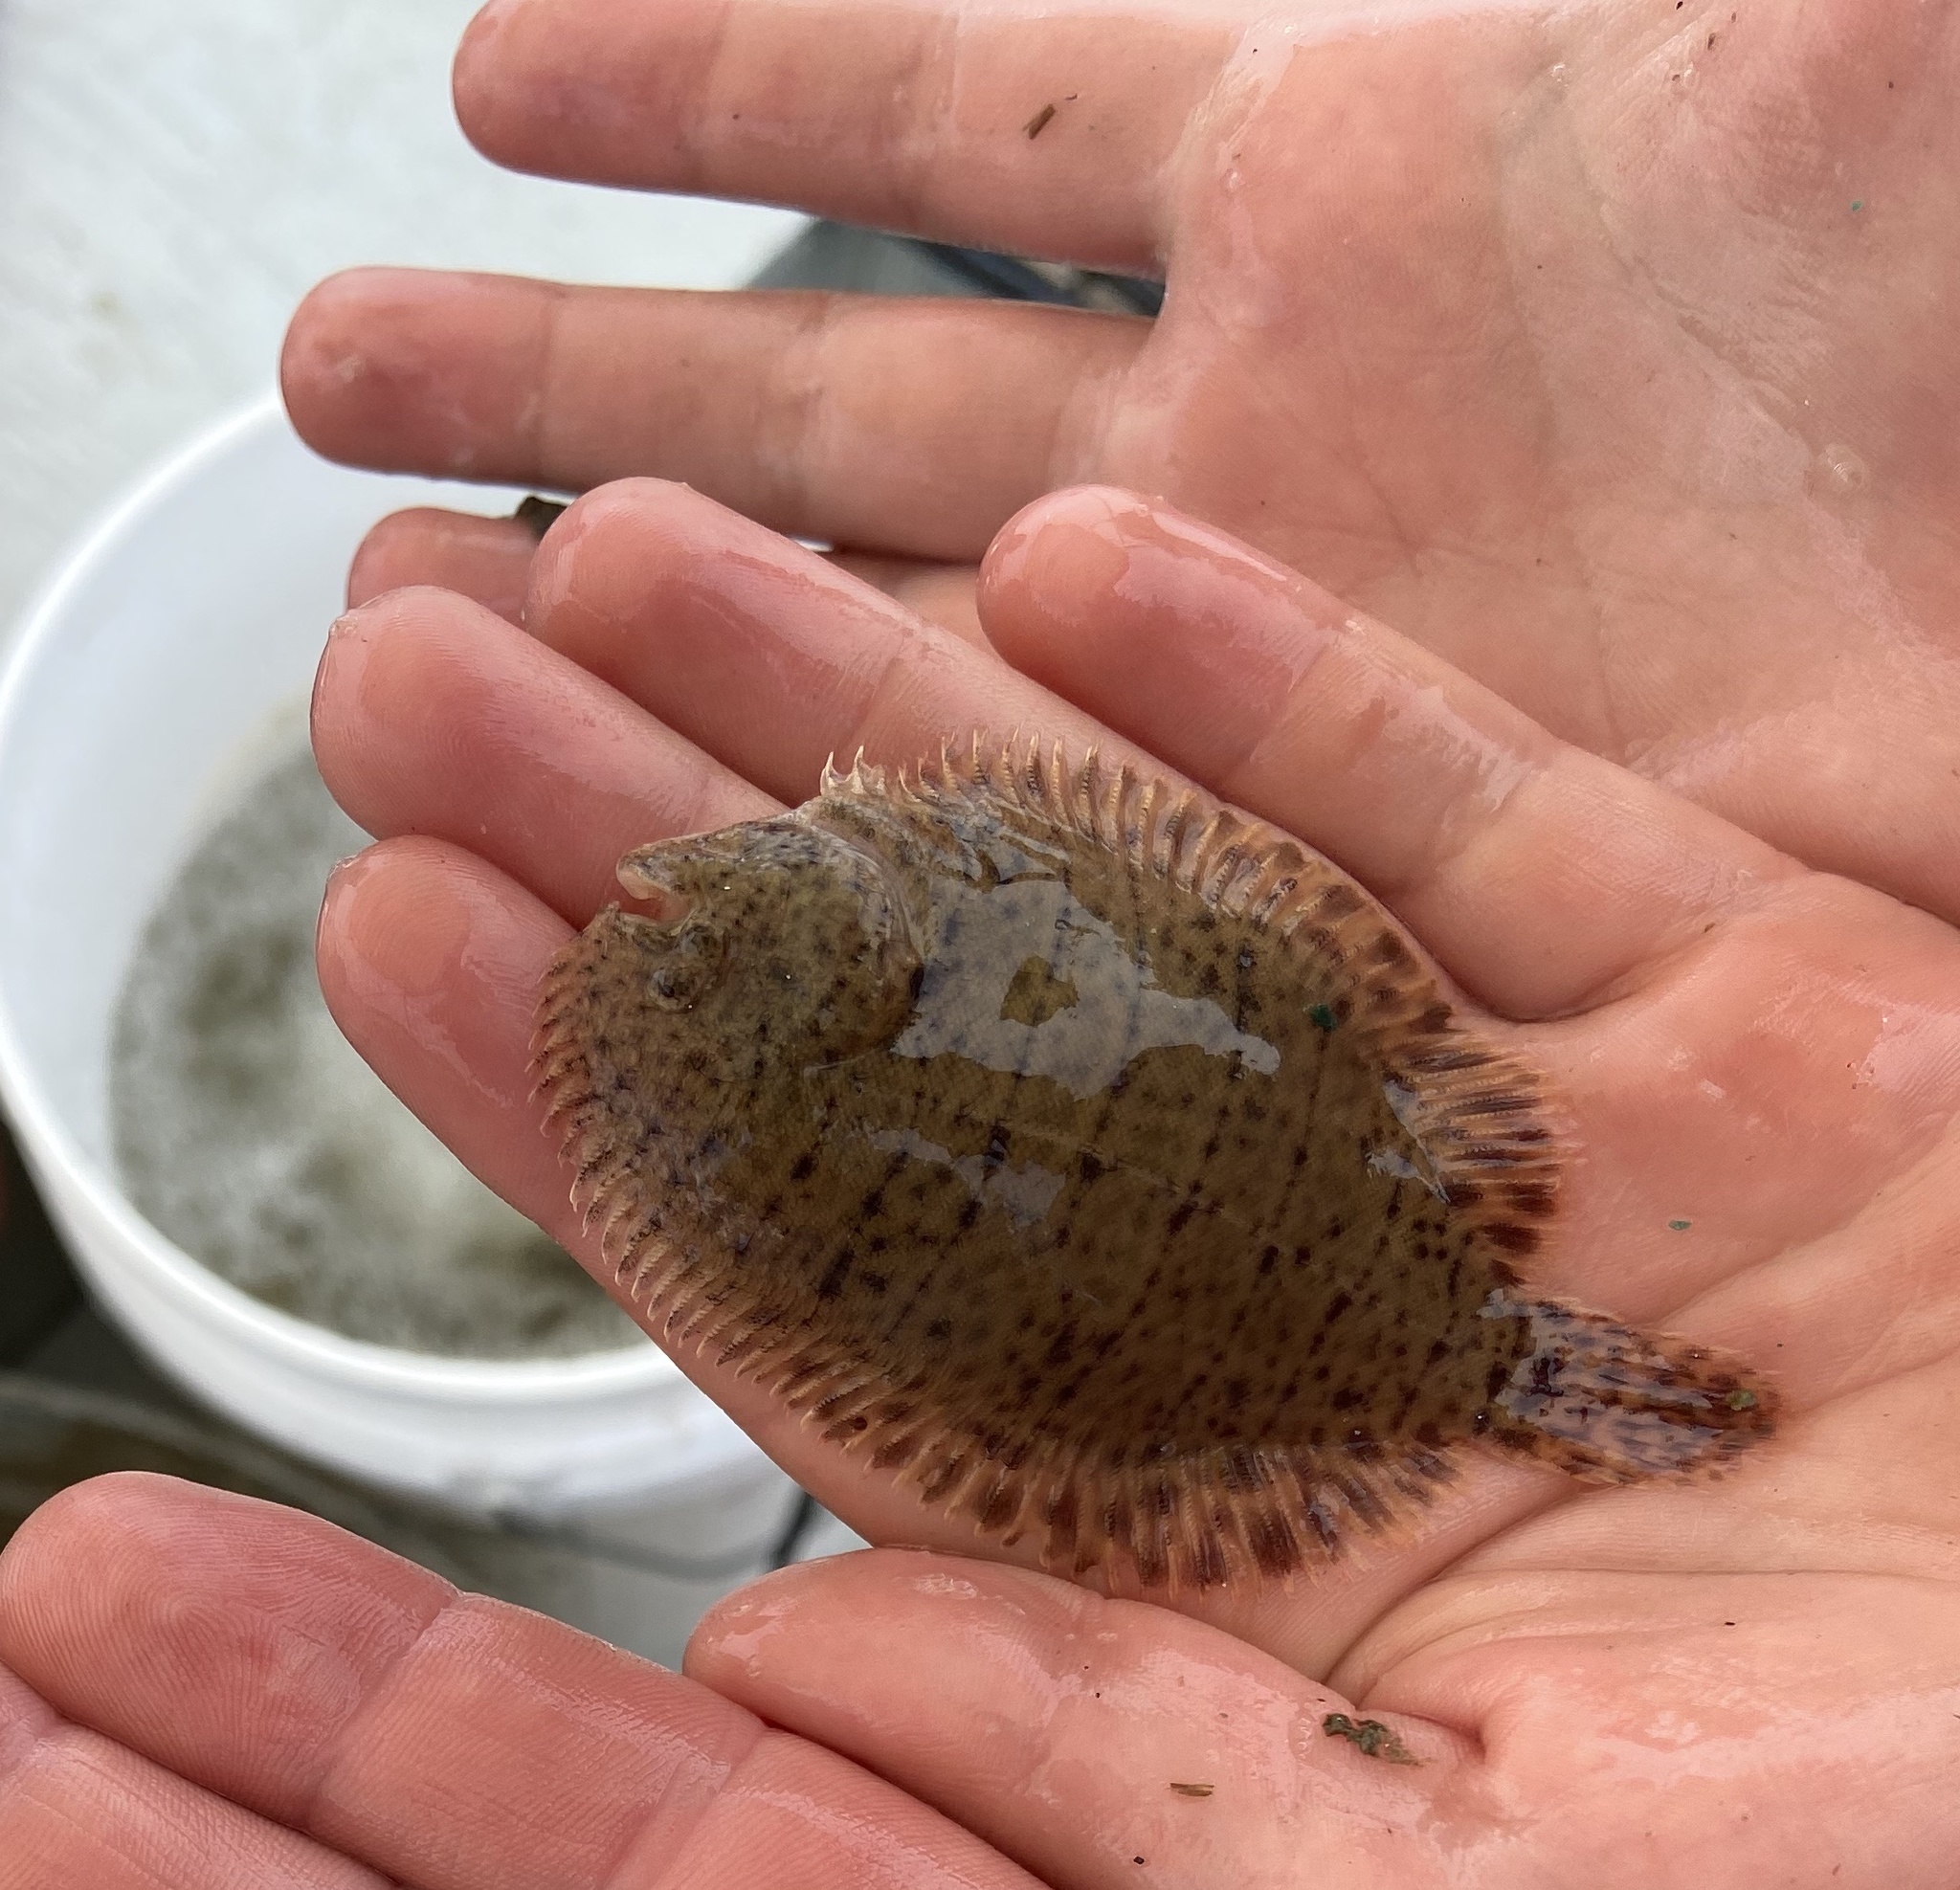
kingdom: Animalia
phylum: Chordata
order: Pleuronectiformes
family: Achiridae
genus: Trinectes
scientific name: Trinectes maculatus
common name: Hogchoker
